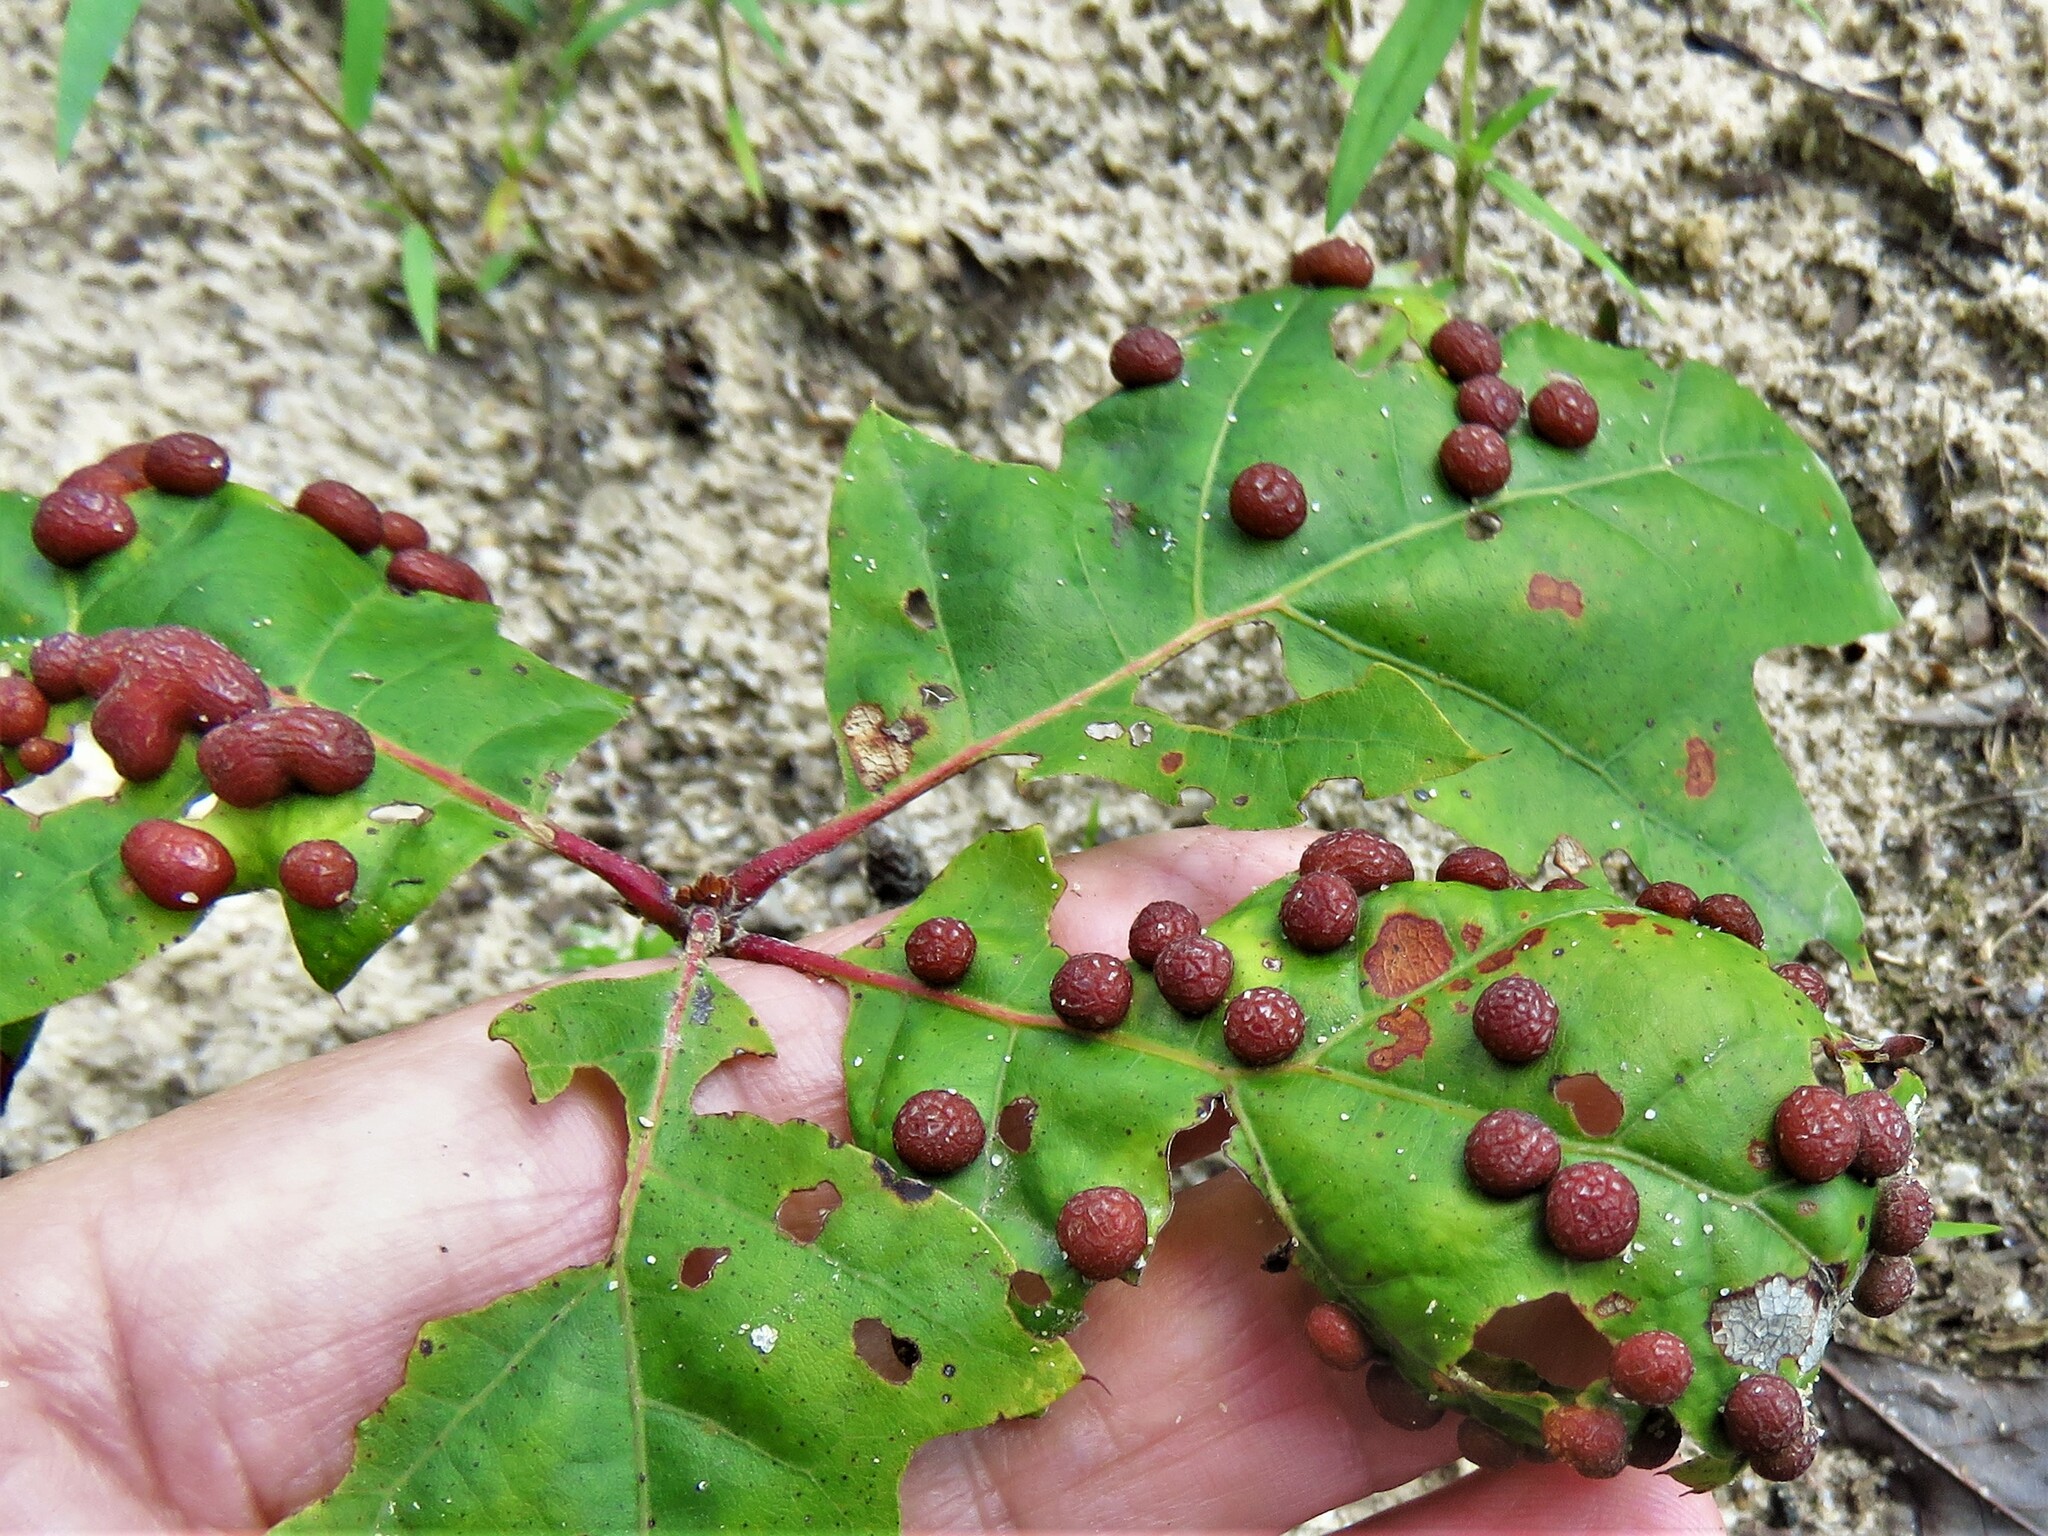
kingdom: Animalia
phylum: Arthropoda
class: Insecta
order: Diptera
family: Cecidomyiidae
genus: Polystepha
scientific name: Polystepha pilulae
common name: Oak leaf gall midge
